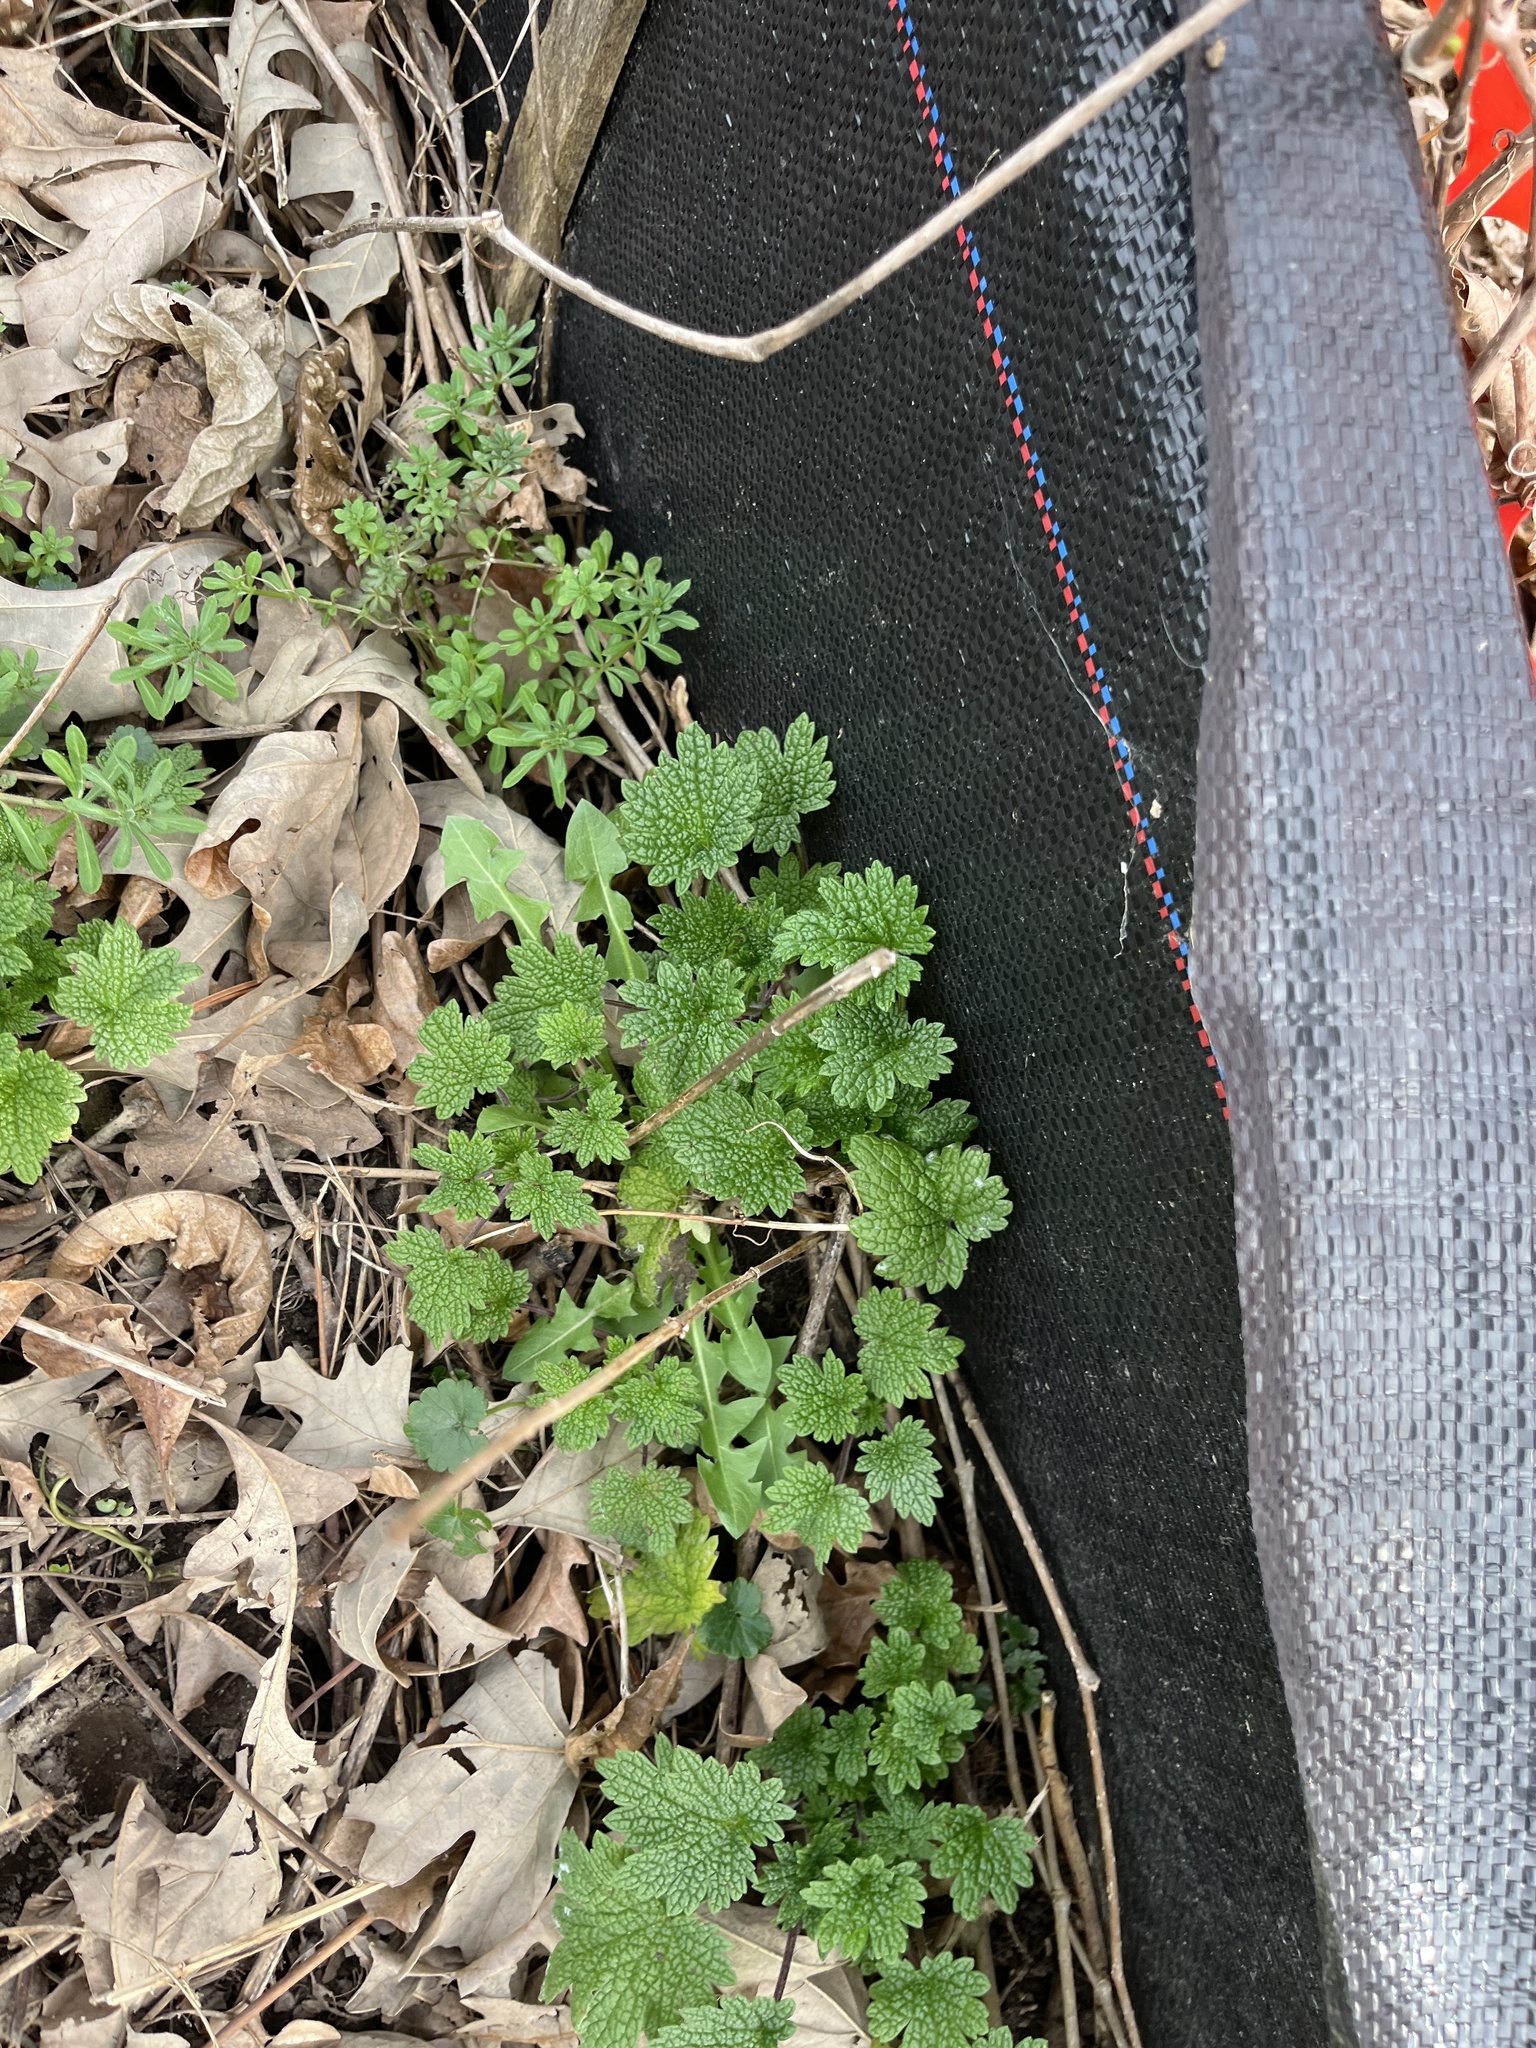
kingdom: Plantae
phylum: Tracheophyta
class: Magnoliopsida
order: Lamiales
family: Lamiaceae
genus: Leonurus
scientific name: Leonurus cardiaca
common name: Motherwort
